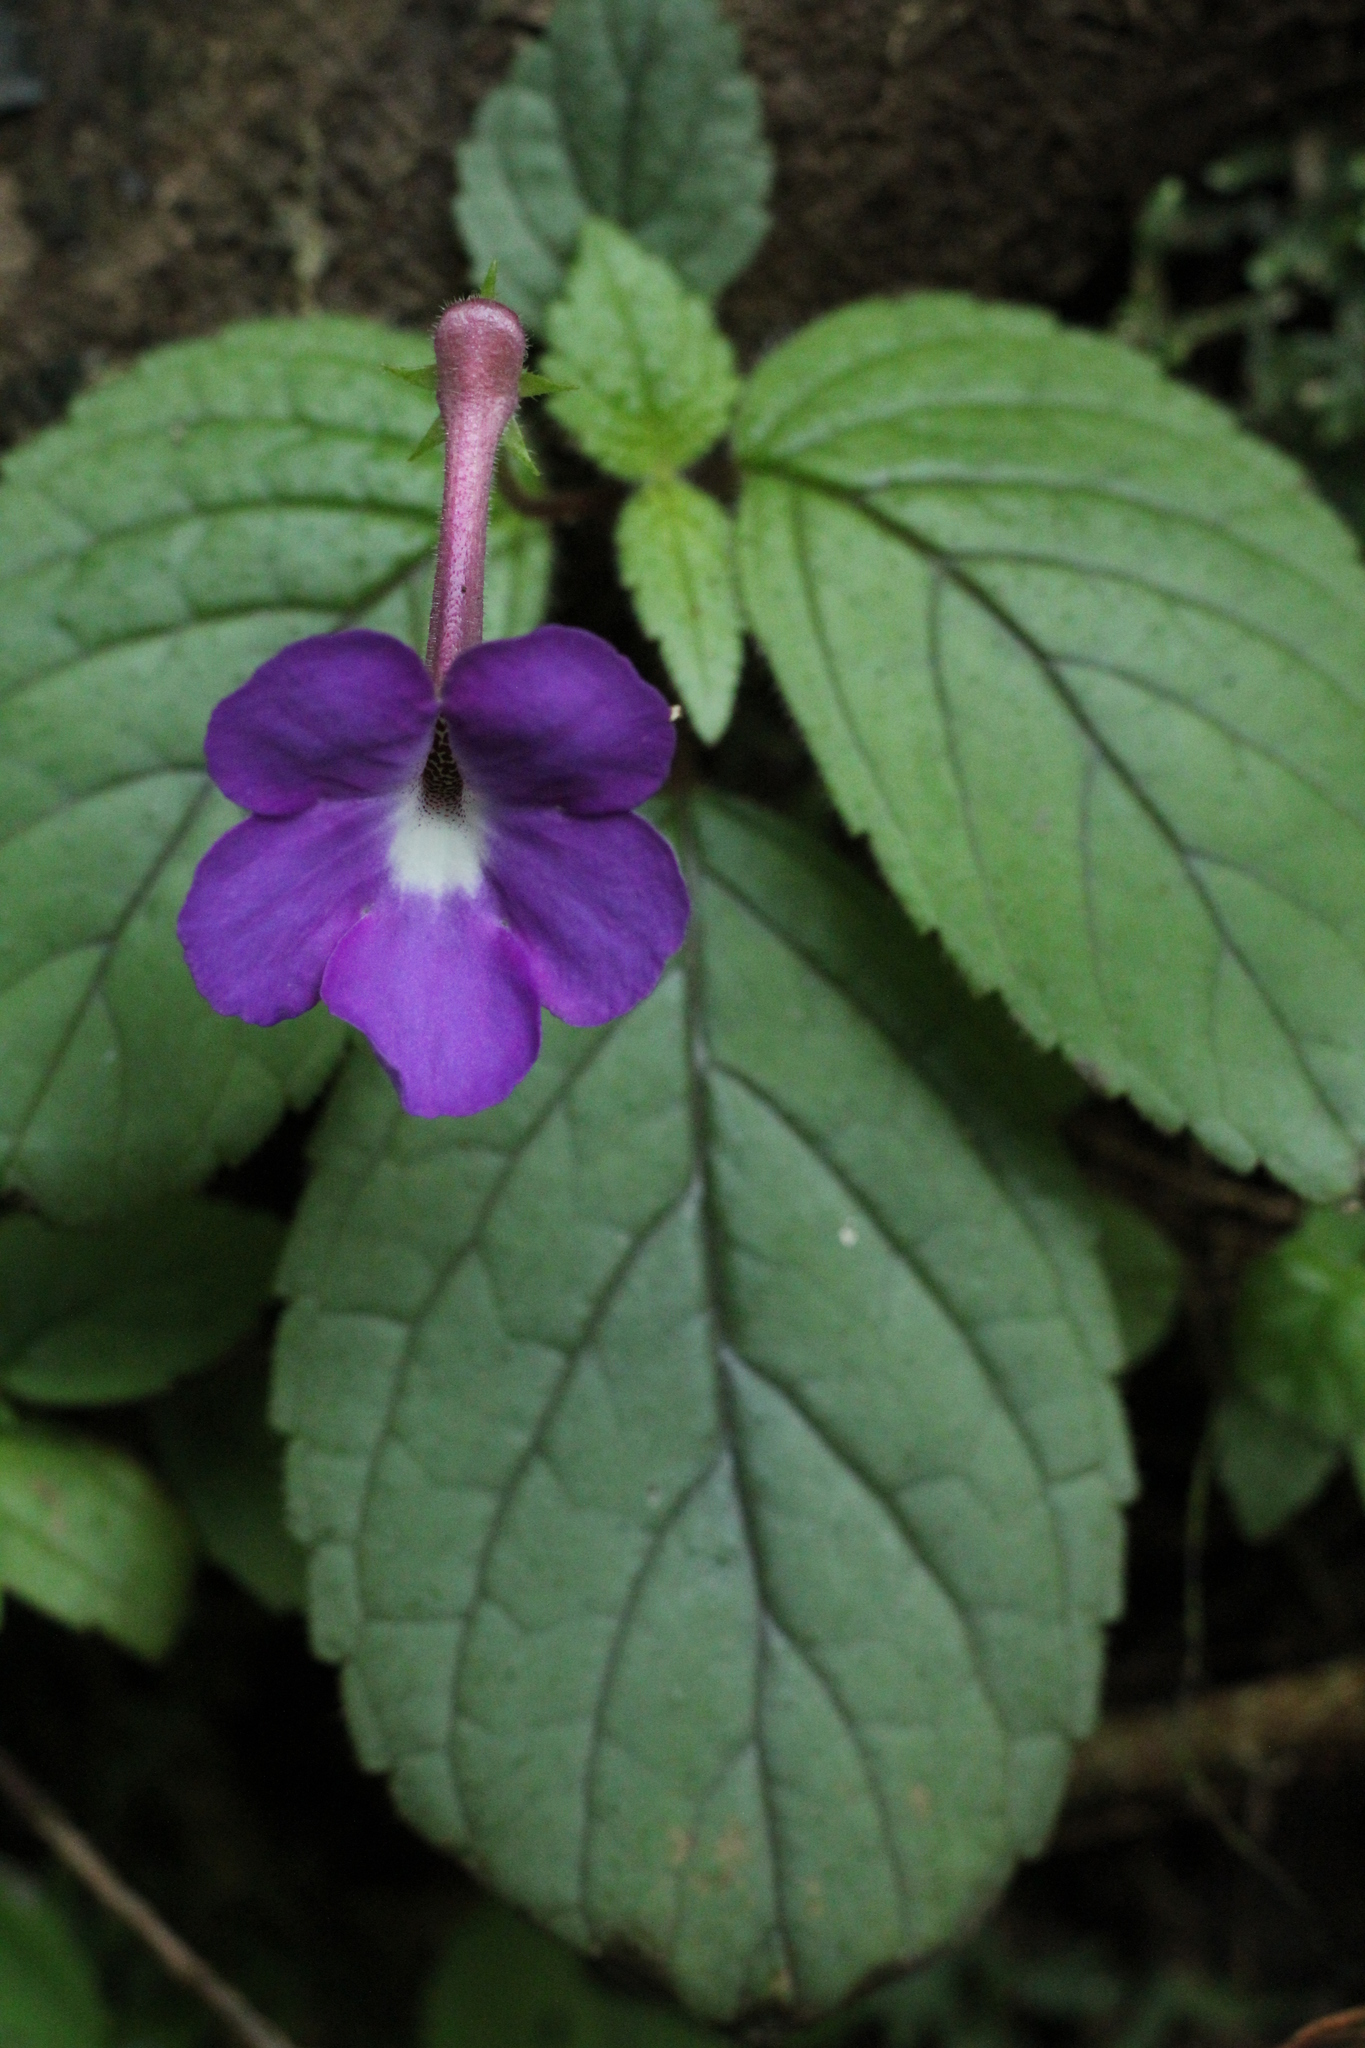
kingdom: Plantae
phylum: Tracheophyta
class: Magnoliopsida
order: Lamiales
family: Gesneriaceae
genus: Achimenes
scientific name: Achimenes grandiflora
